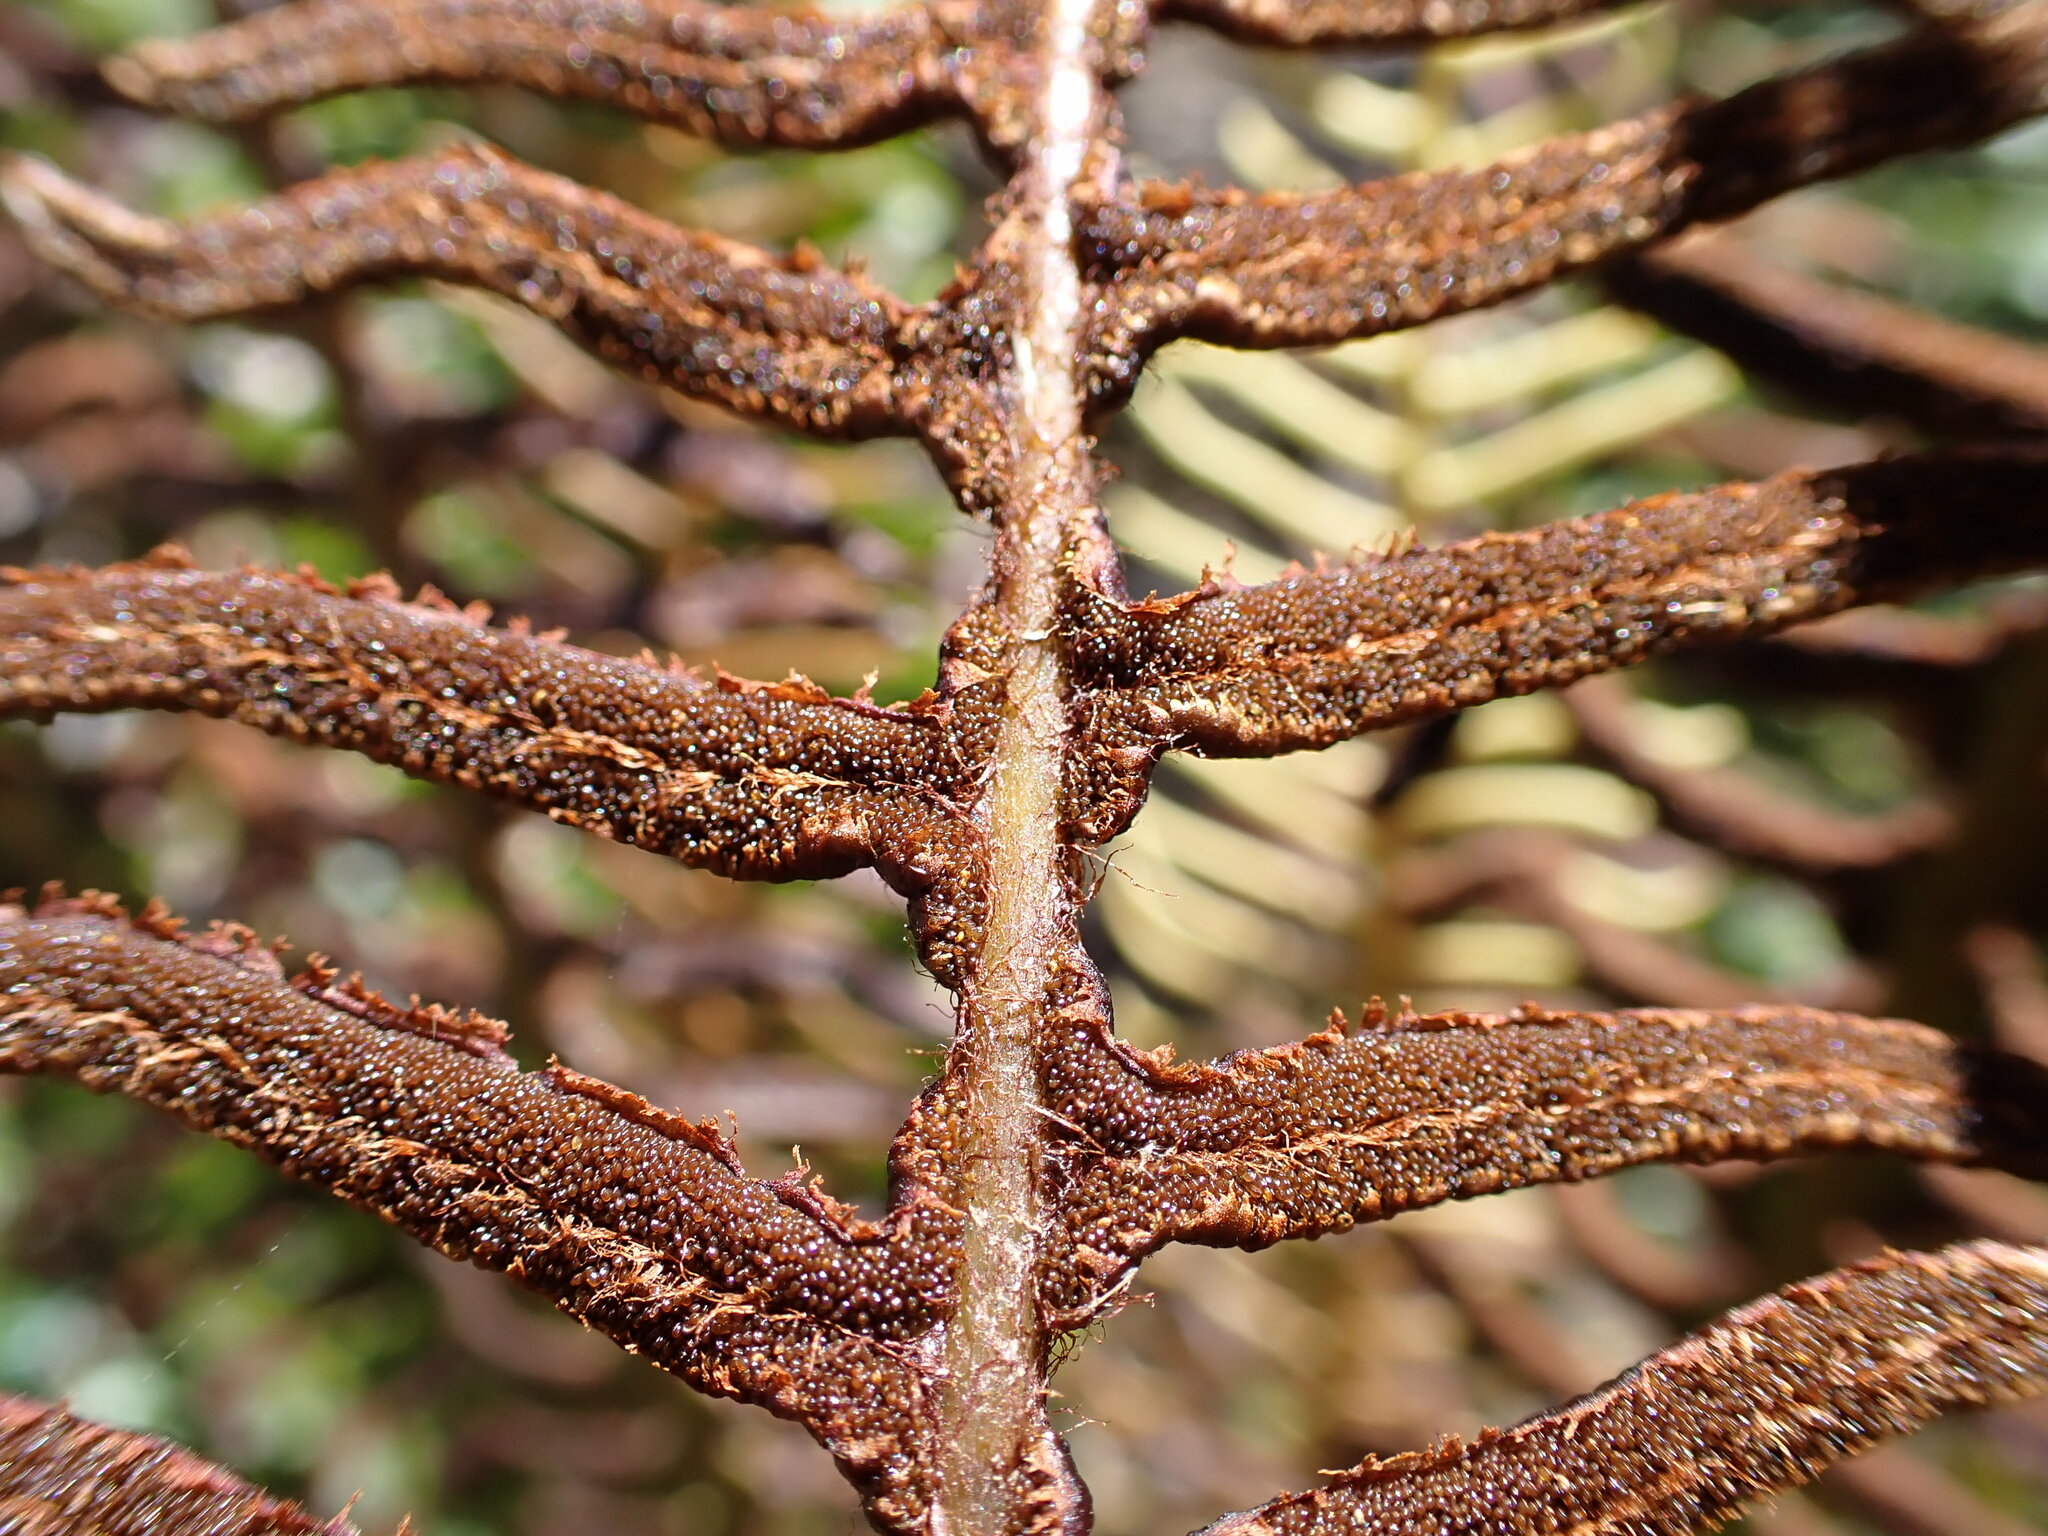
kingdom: Plantae
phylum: Tracheophyta
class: Polypodiopsida
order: Polypodiales
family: Blechnaceae
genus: Lomaria
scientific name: Lomaria discolor
